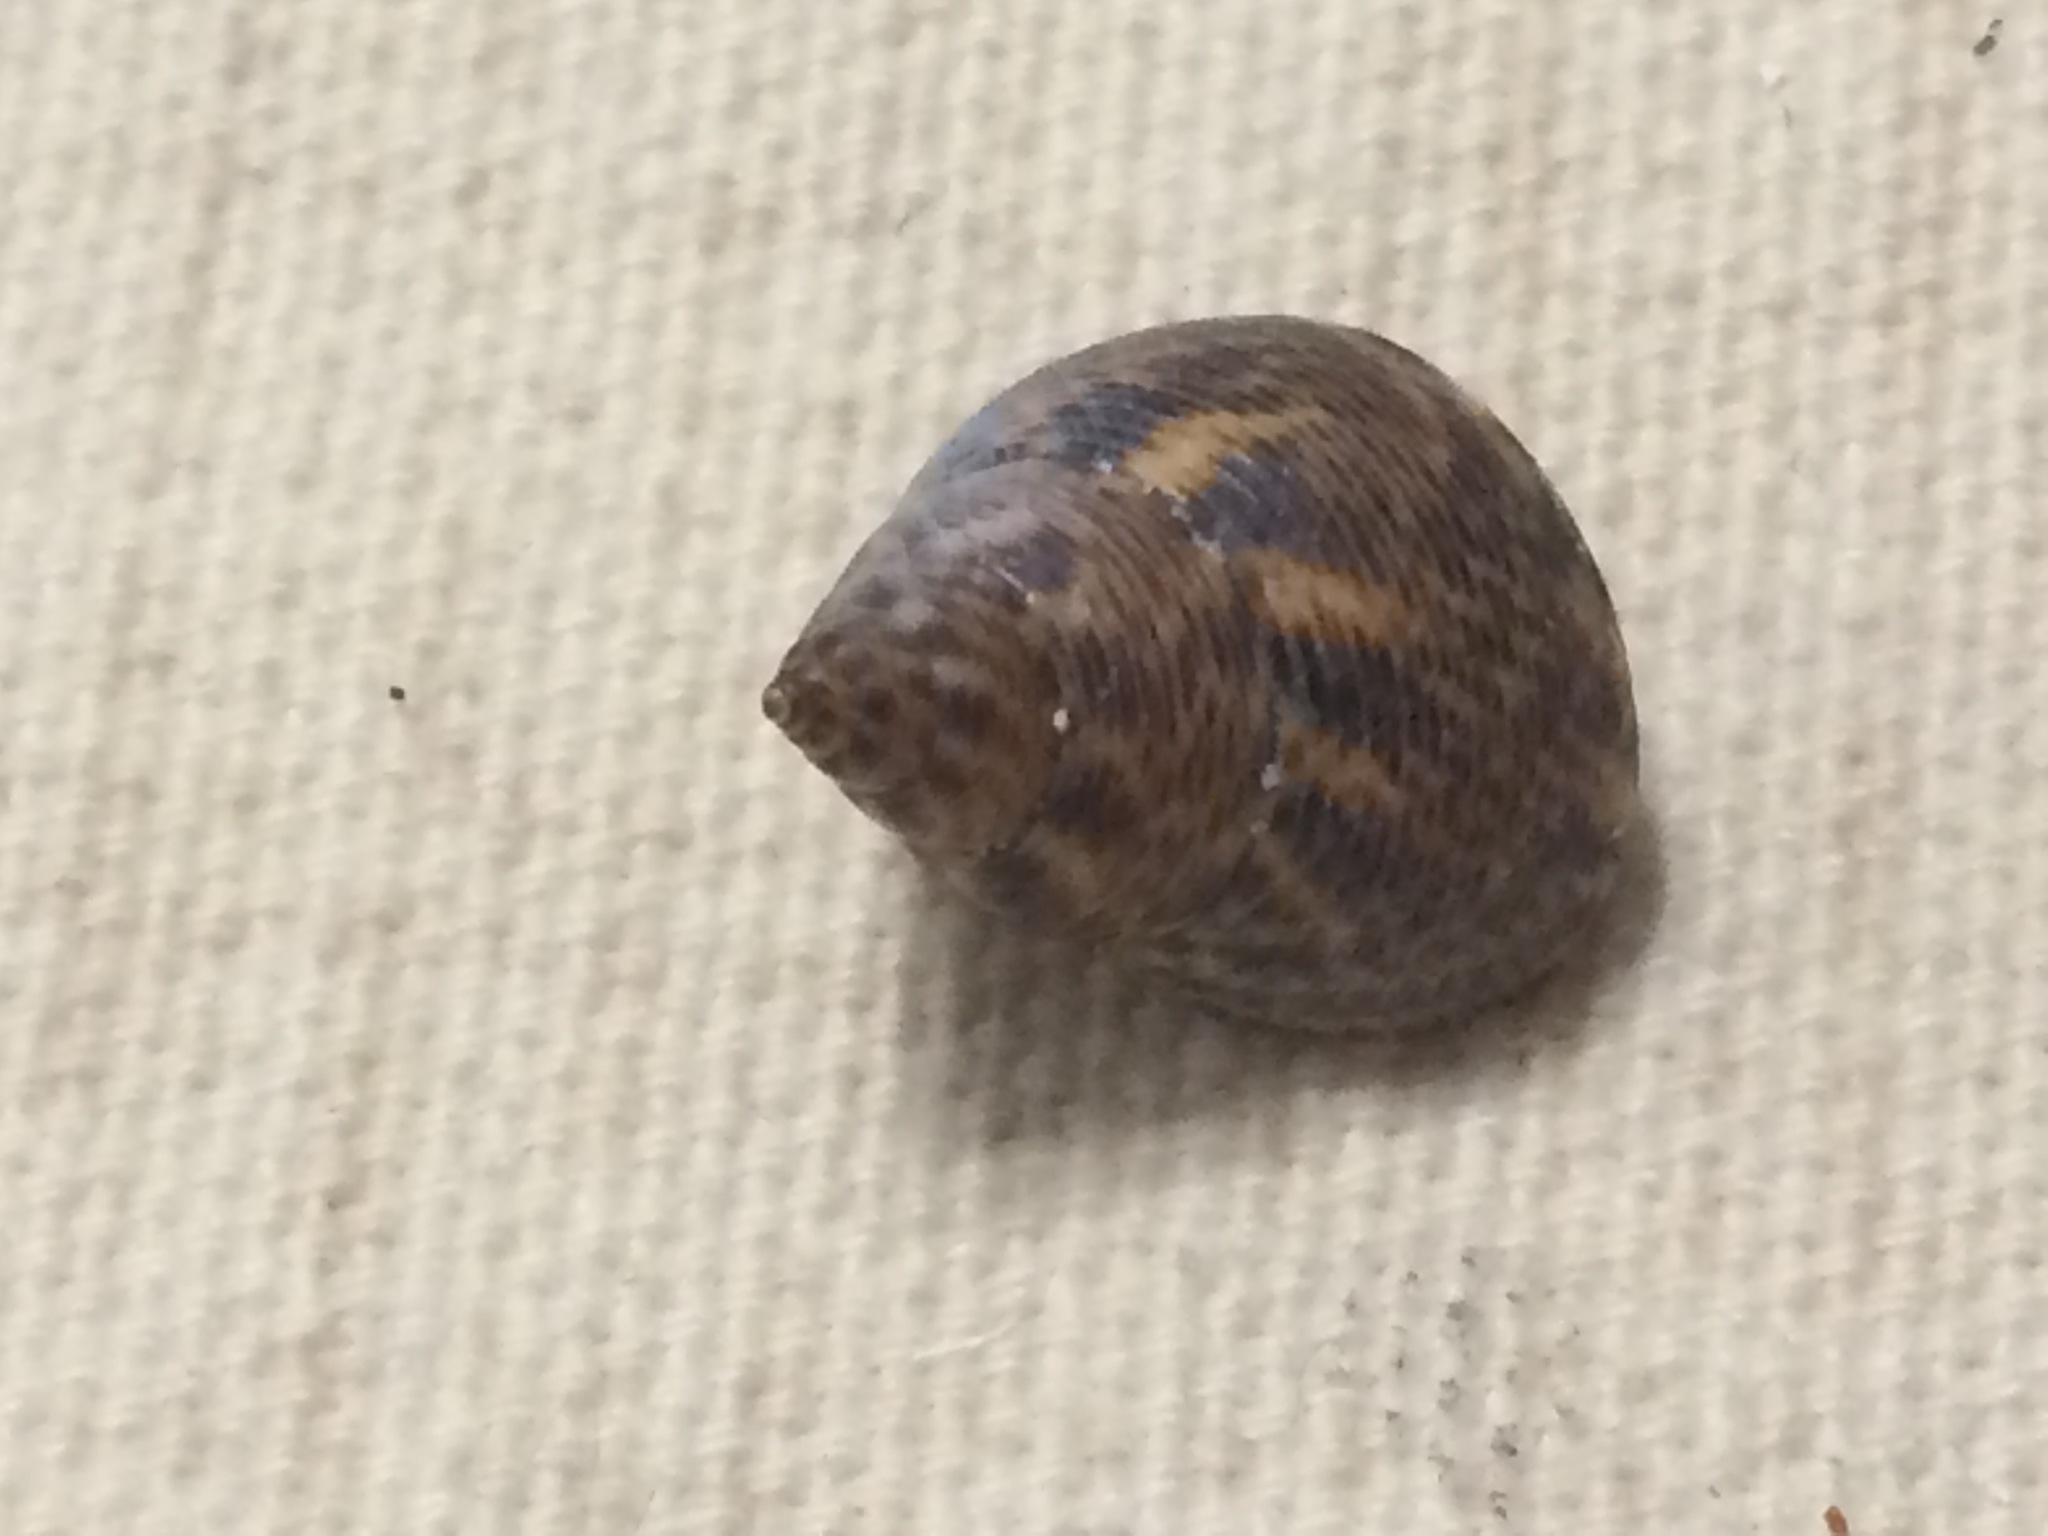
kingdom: Animalia
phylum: Mollusca
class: Gastropoda
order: Littorinimorpha
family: Littorinidae
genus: Littoraria
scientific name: Littoraria angulifera
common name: Mangrove periwinkle
